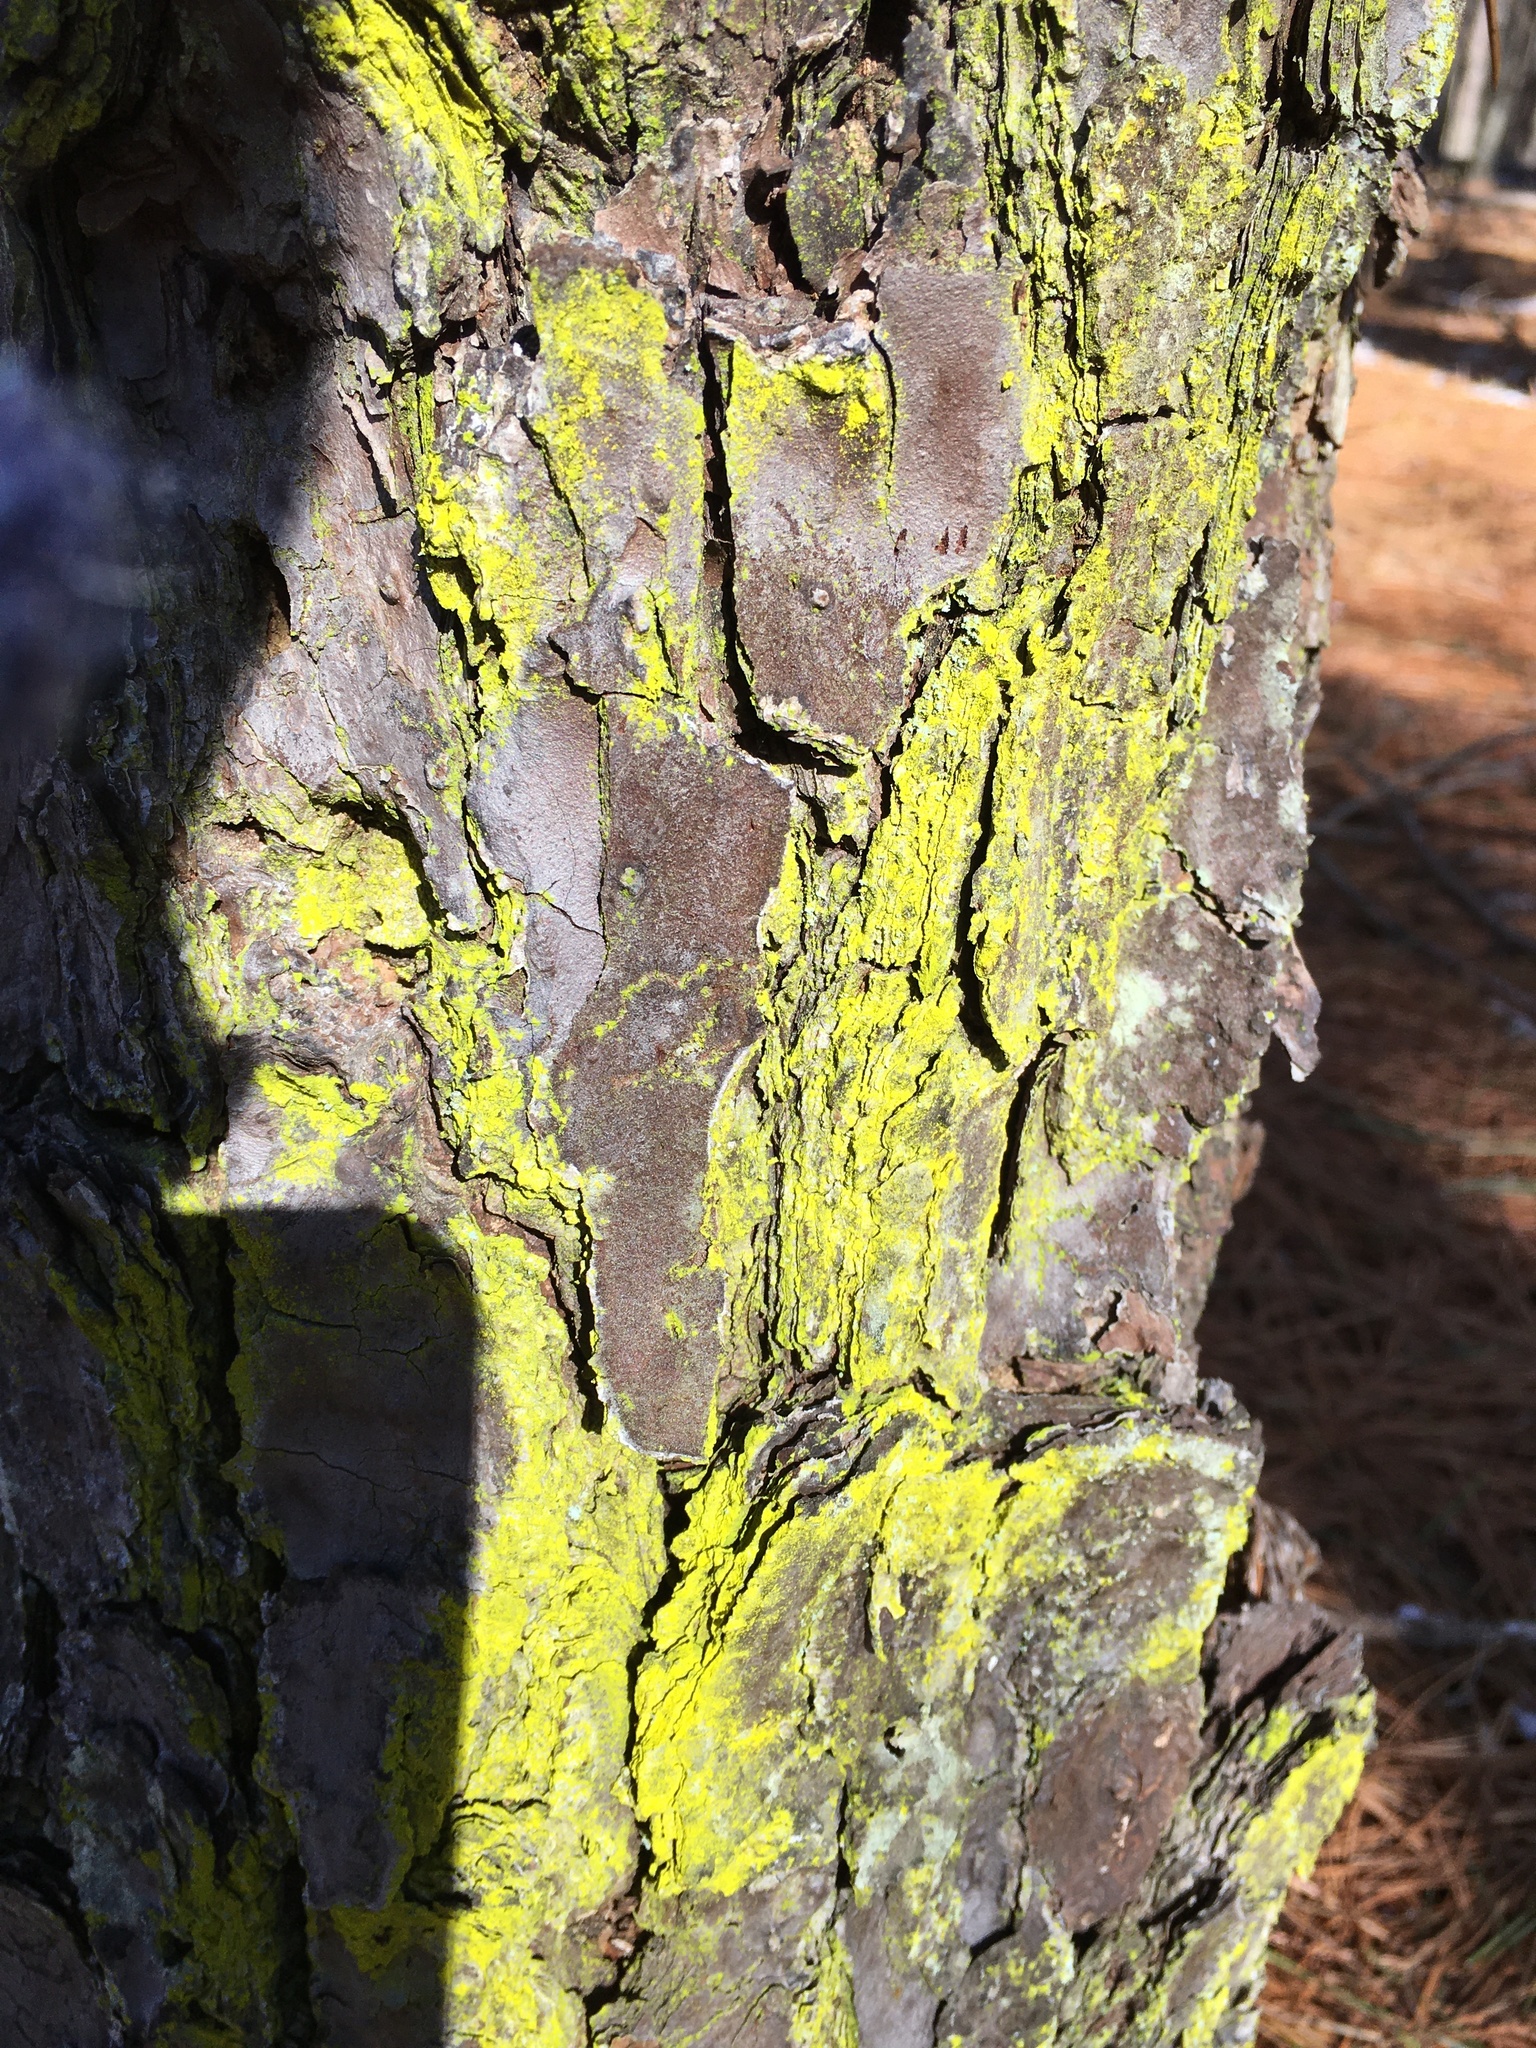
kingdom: Fungi
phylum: Ascomycota
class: Arthoniomycetes
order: Arthoniales
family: Chrysotrichaceae
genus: Chrysothrix
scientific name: Chrysothrix candelaris
